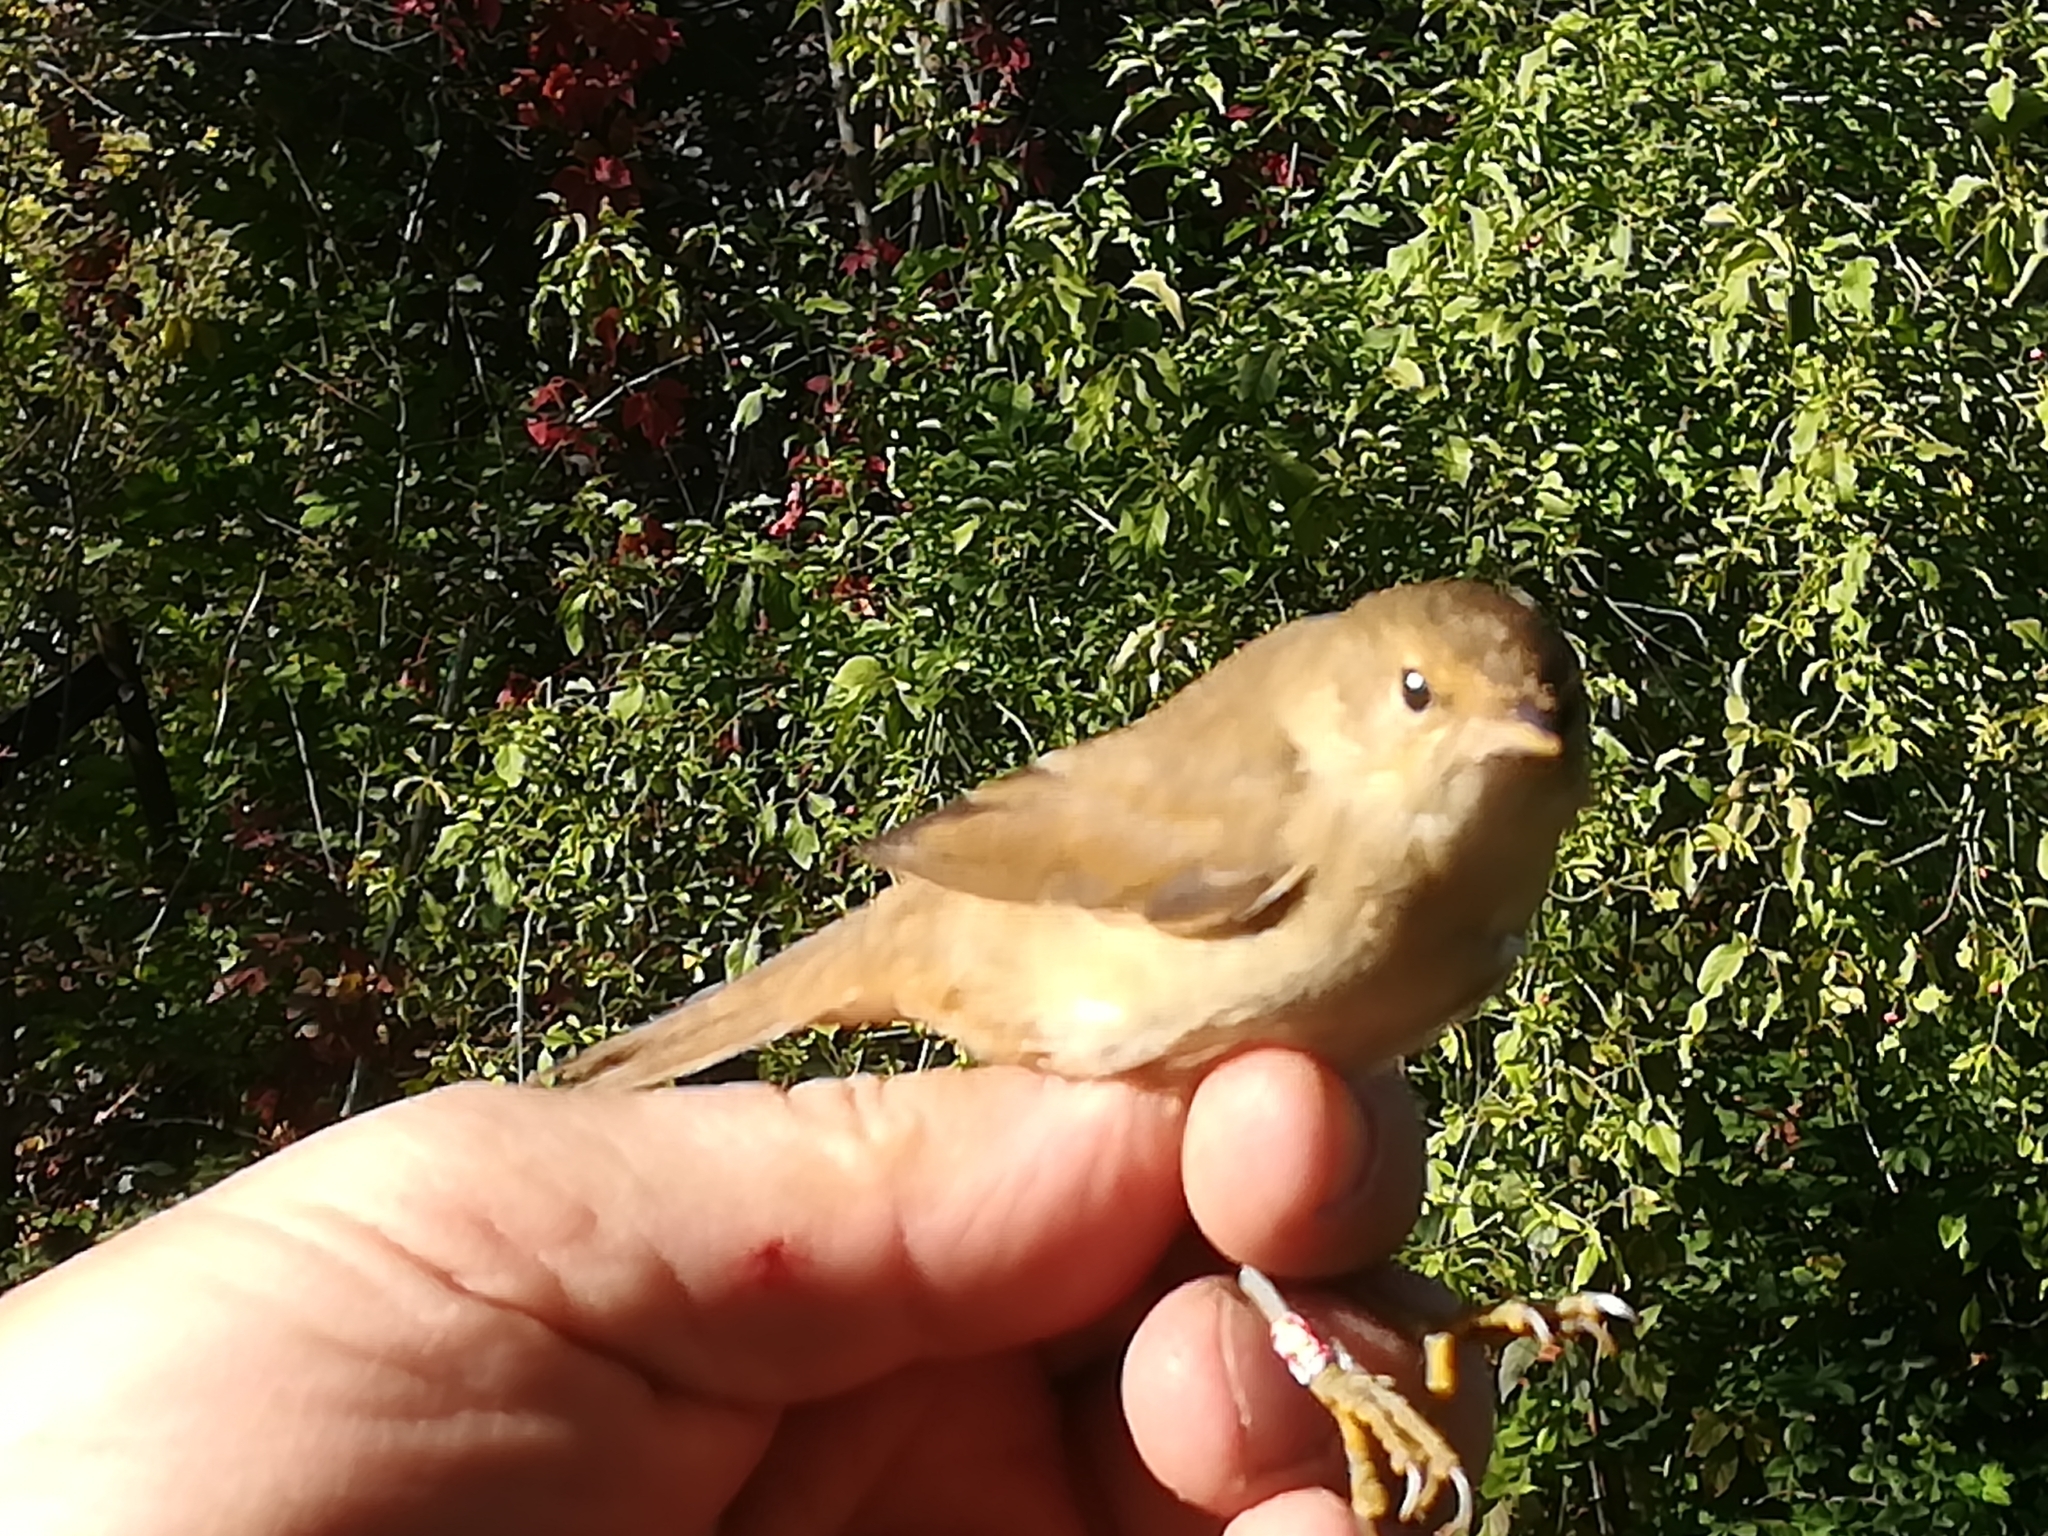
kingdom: Animalia
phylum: Chordata
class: Aves
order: Passeriformes
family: Acrocephalidae
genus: Acrocephalus
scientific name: Acrocephalus scirpaceus
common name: Eurasian reed warbler
